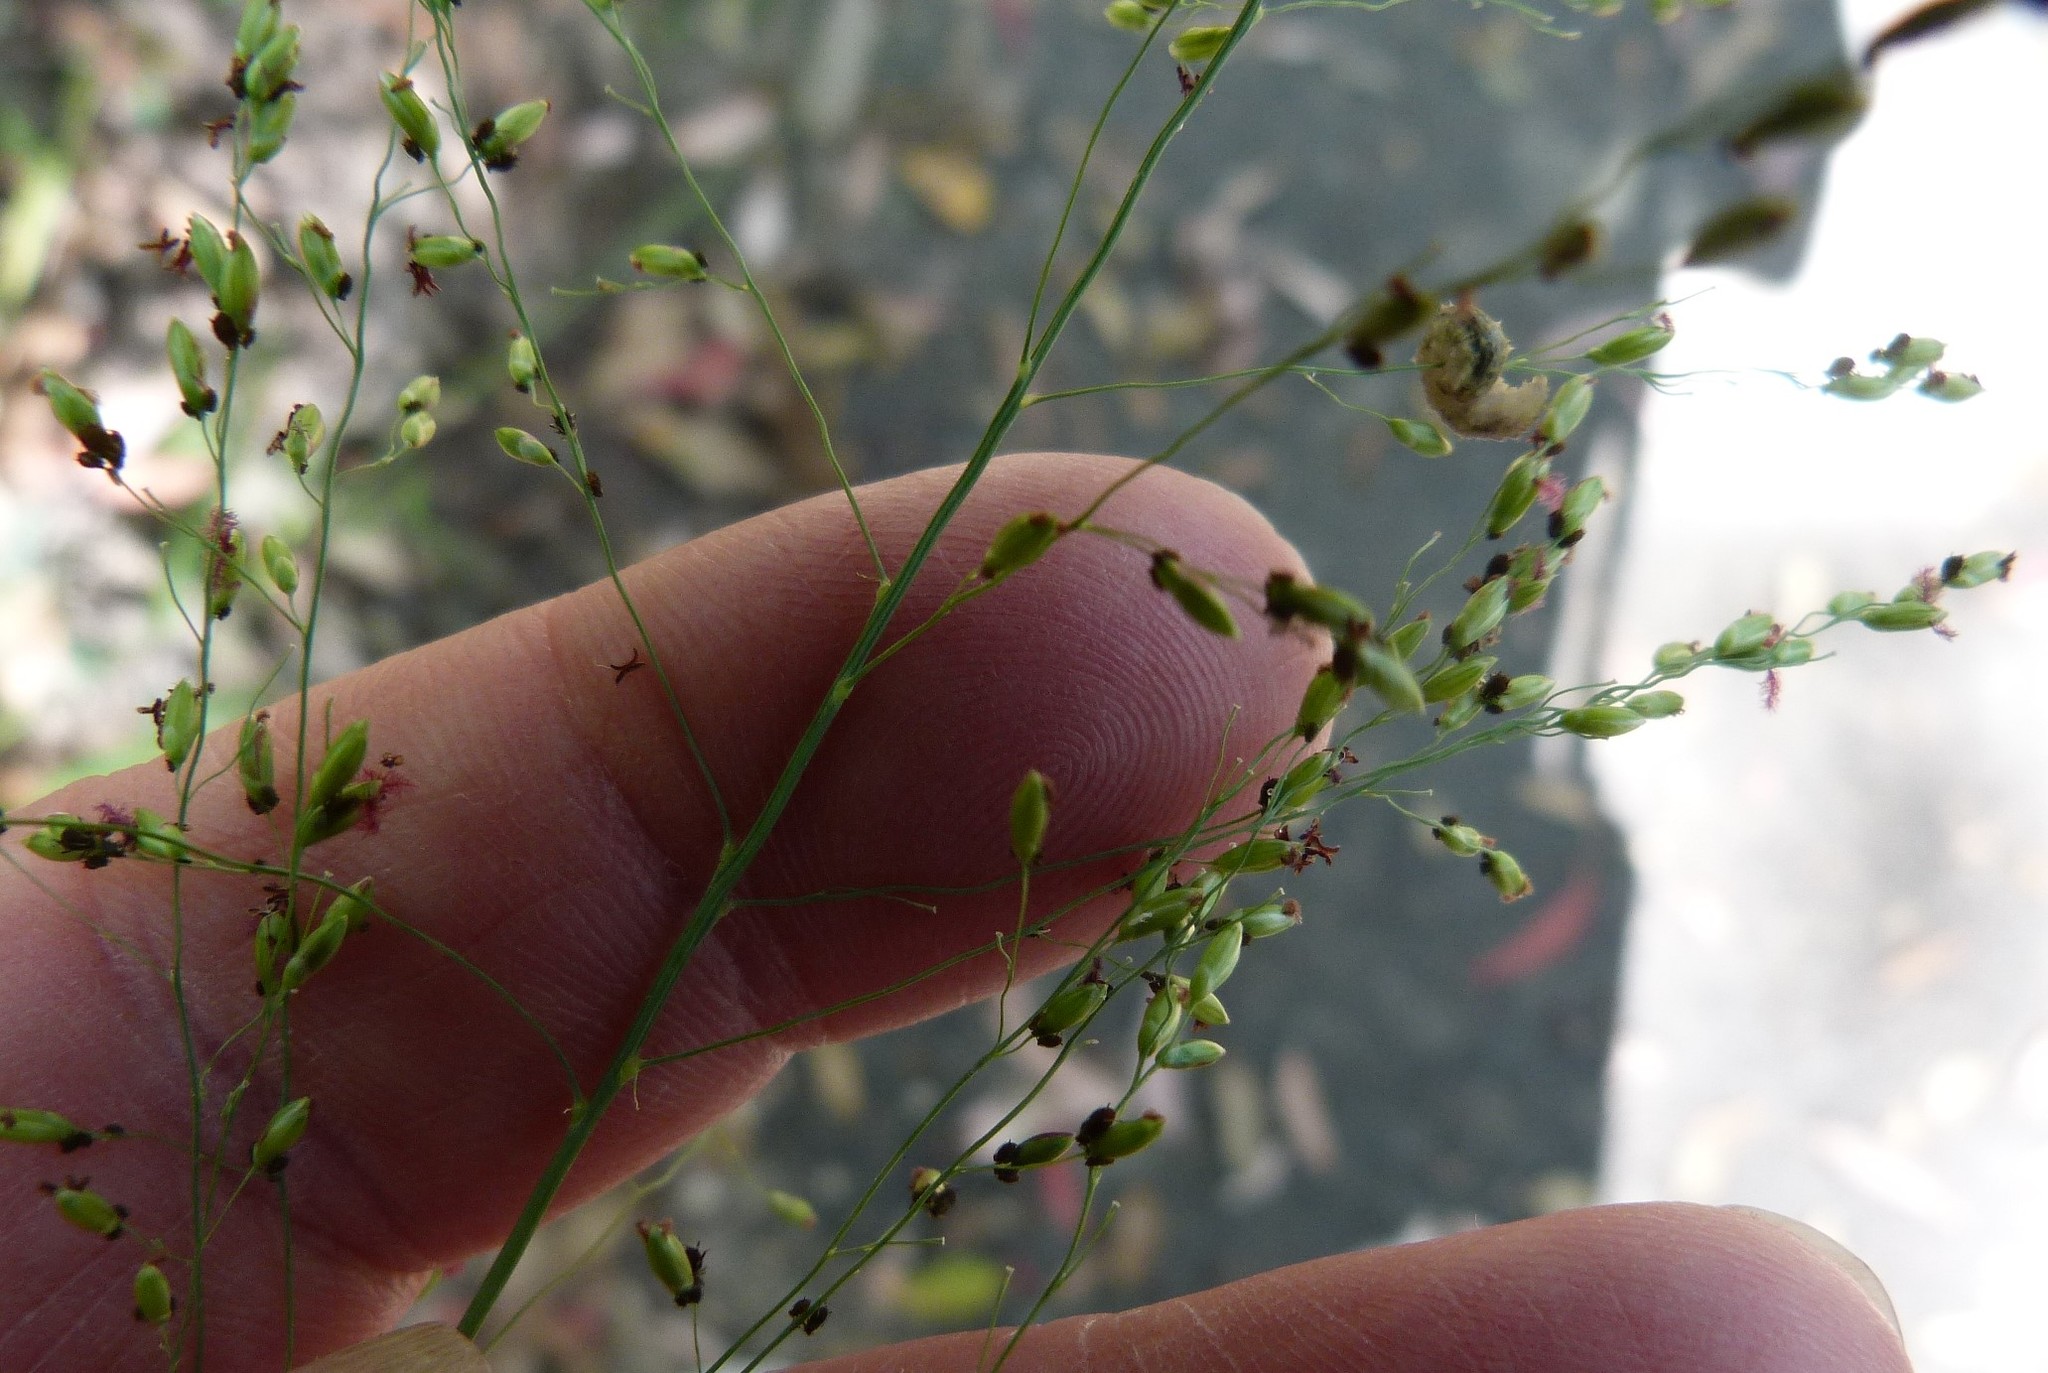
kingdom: Plantae
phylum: Tracheophyta
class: Liliopsida
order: Poales
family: Poaceae
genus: Megathyrsus
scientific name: Megathyrsus maximus
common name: Guineagrass
